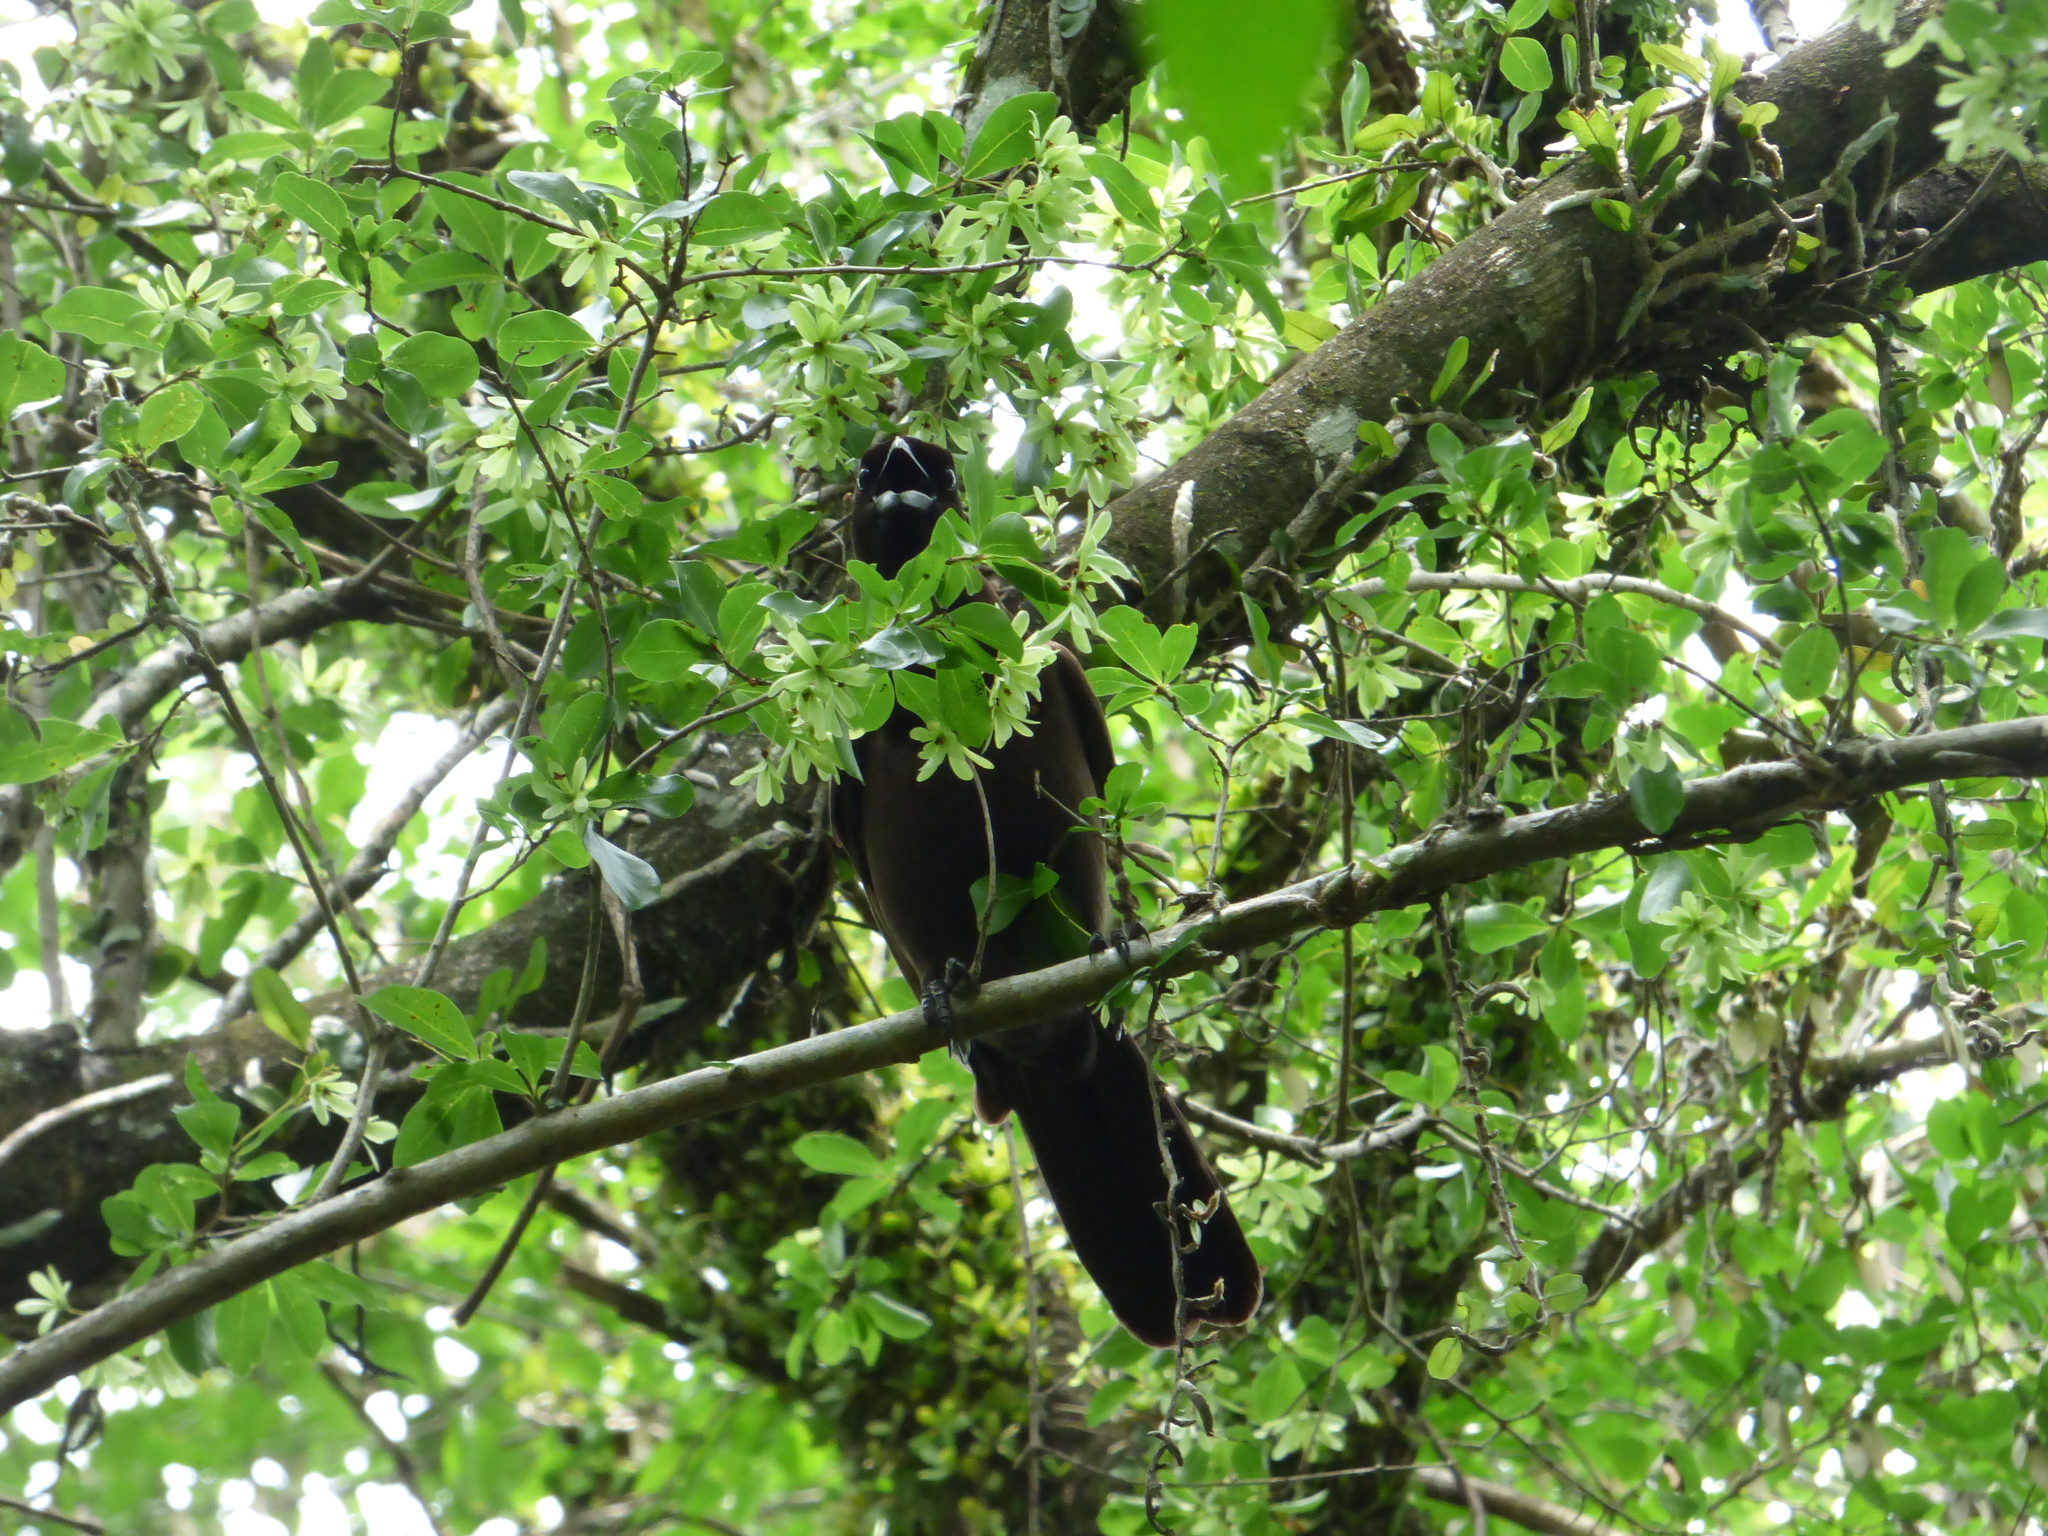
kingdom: Animalia
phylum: Chordata
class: Aves
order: Passeriformes
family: Corvidae
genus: Cyanocorax
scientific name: Cyanocorax cyanomelas
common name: Purplish jay
